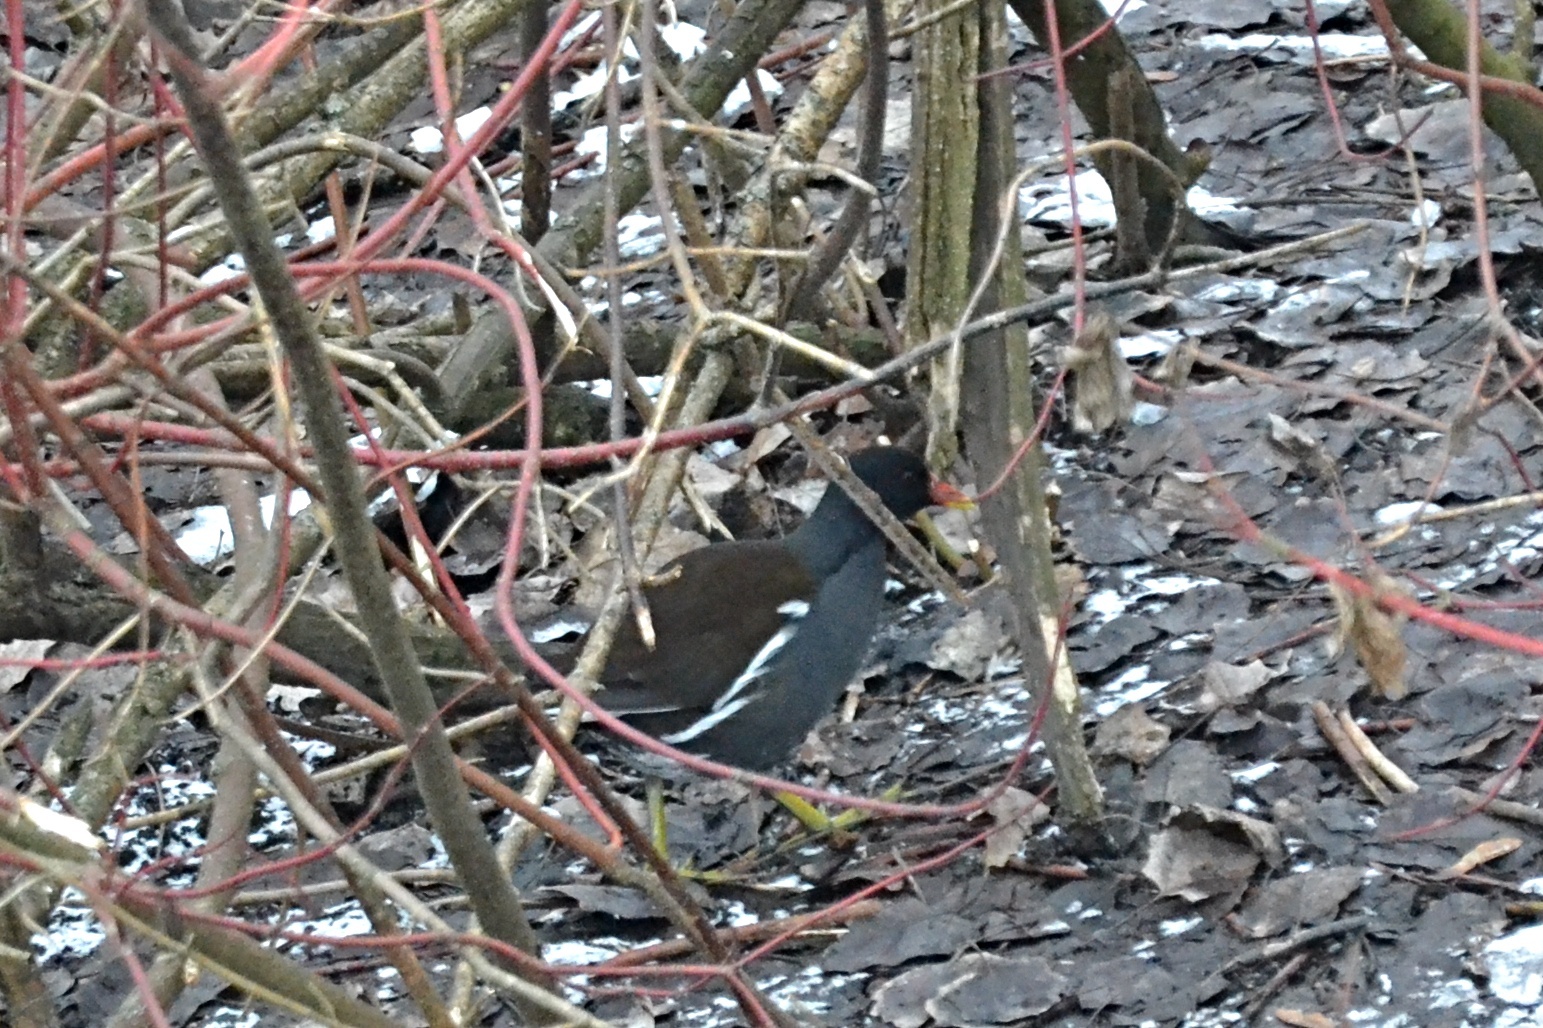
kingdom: Animalia
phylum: Chordata
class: Aves
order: Gruiformes
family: Rallidae
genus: Gallinula
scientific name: Gallinula chloropus
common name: Common moorhen
